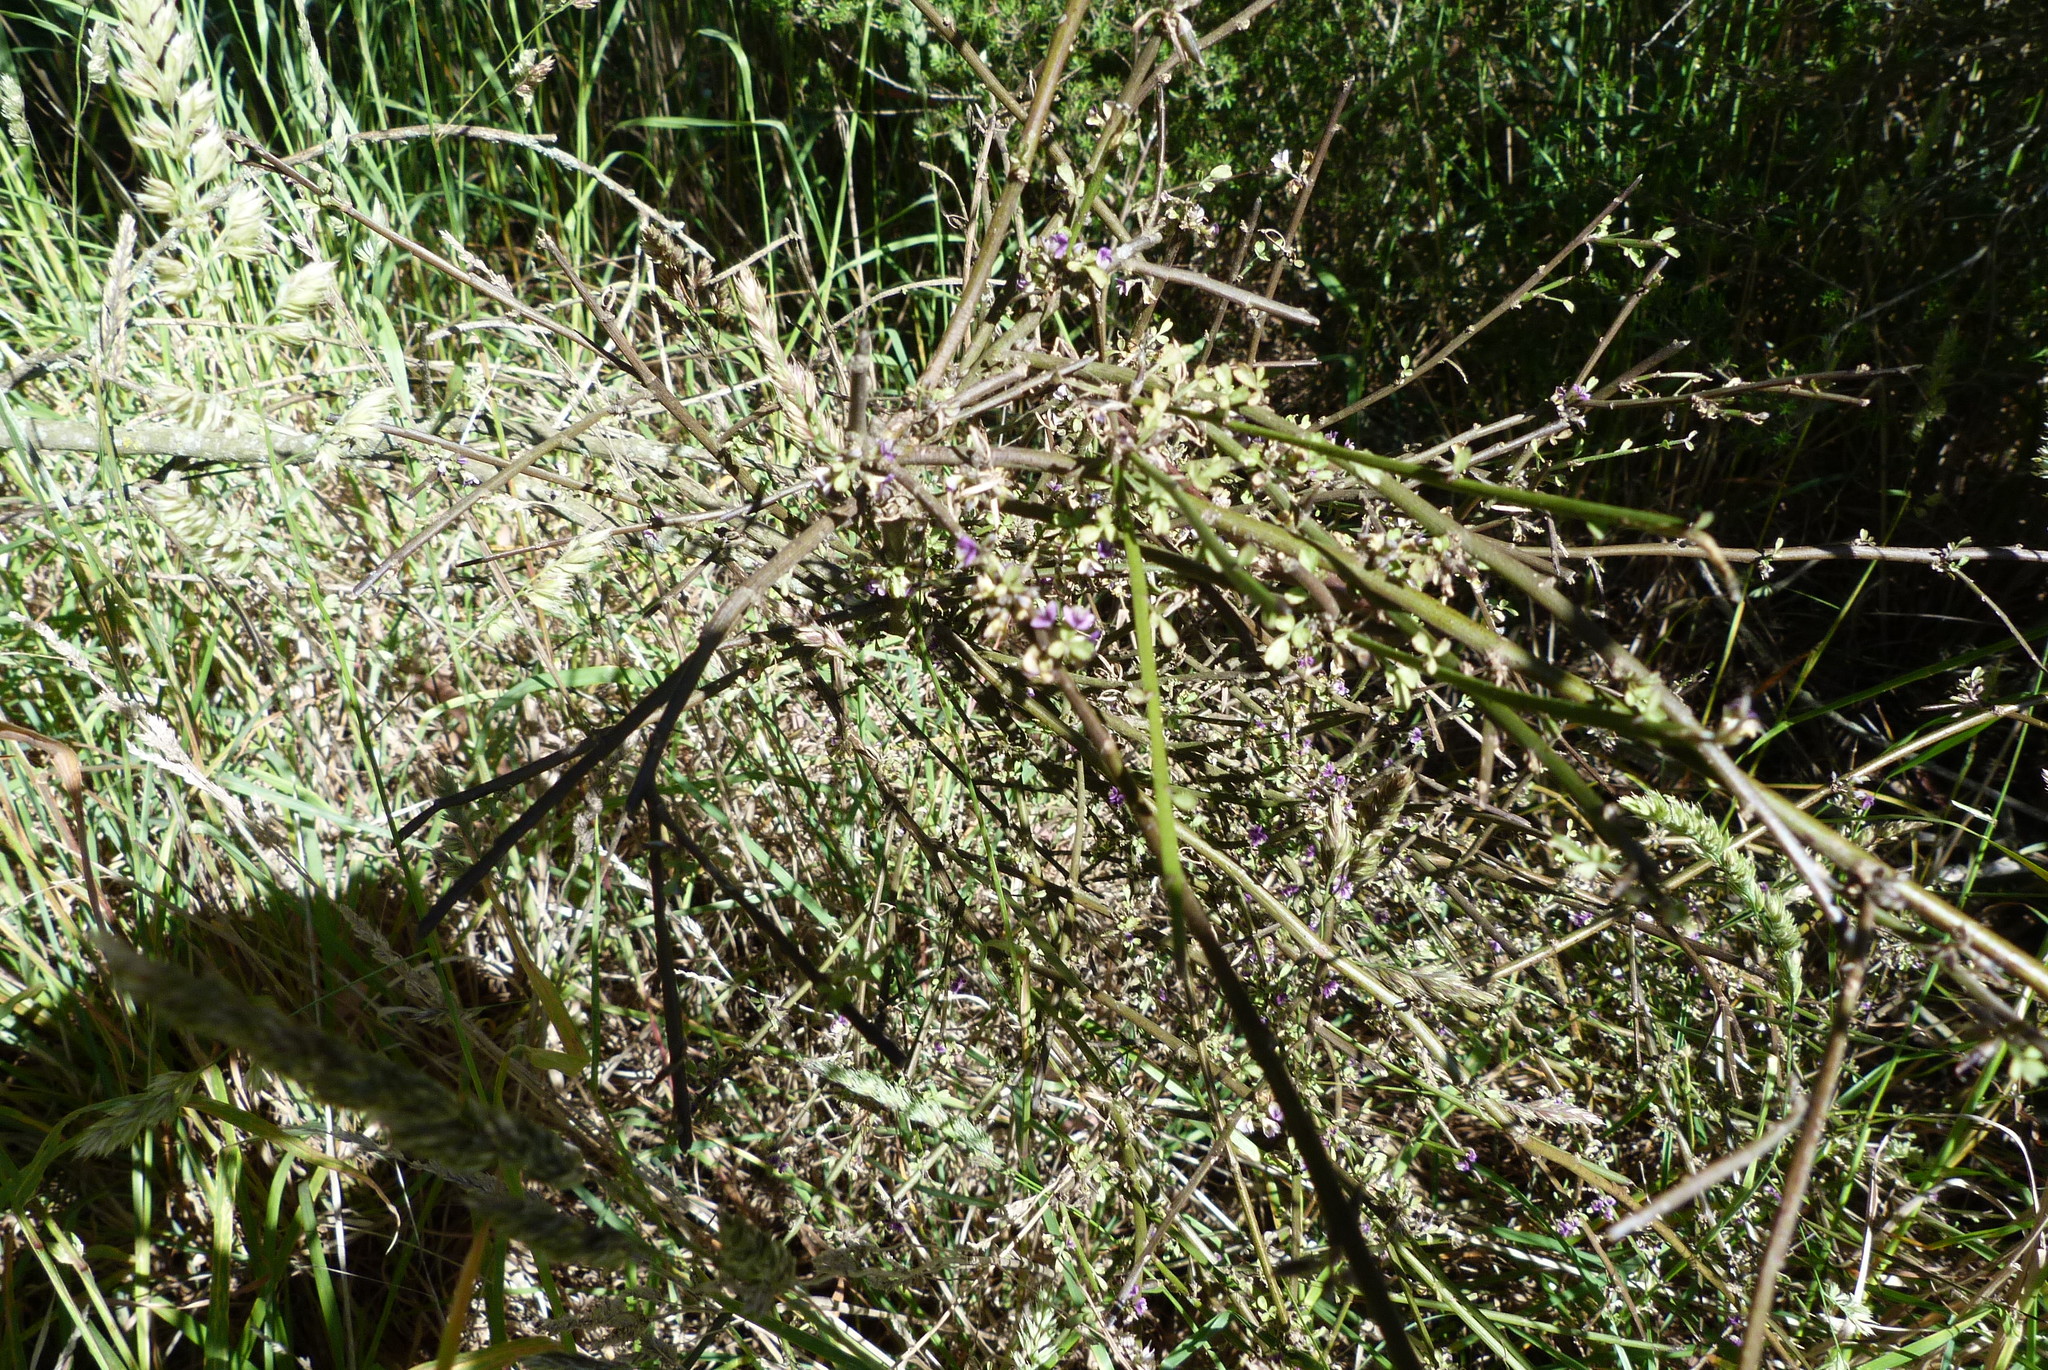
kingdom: Plantae
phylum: Tracheophyta
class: Magnoliopsida
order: Fabales
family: Fabaceae
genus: Carmichaelia
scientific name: Carmichaelia australis
